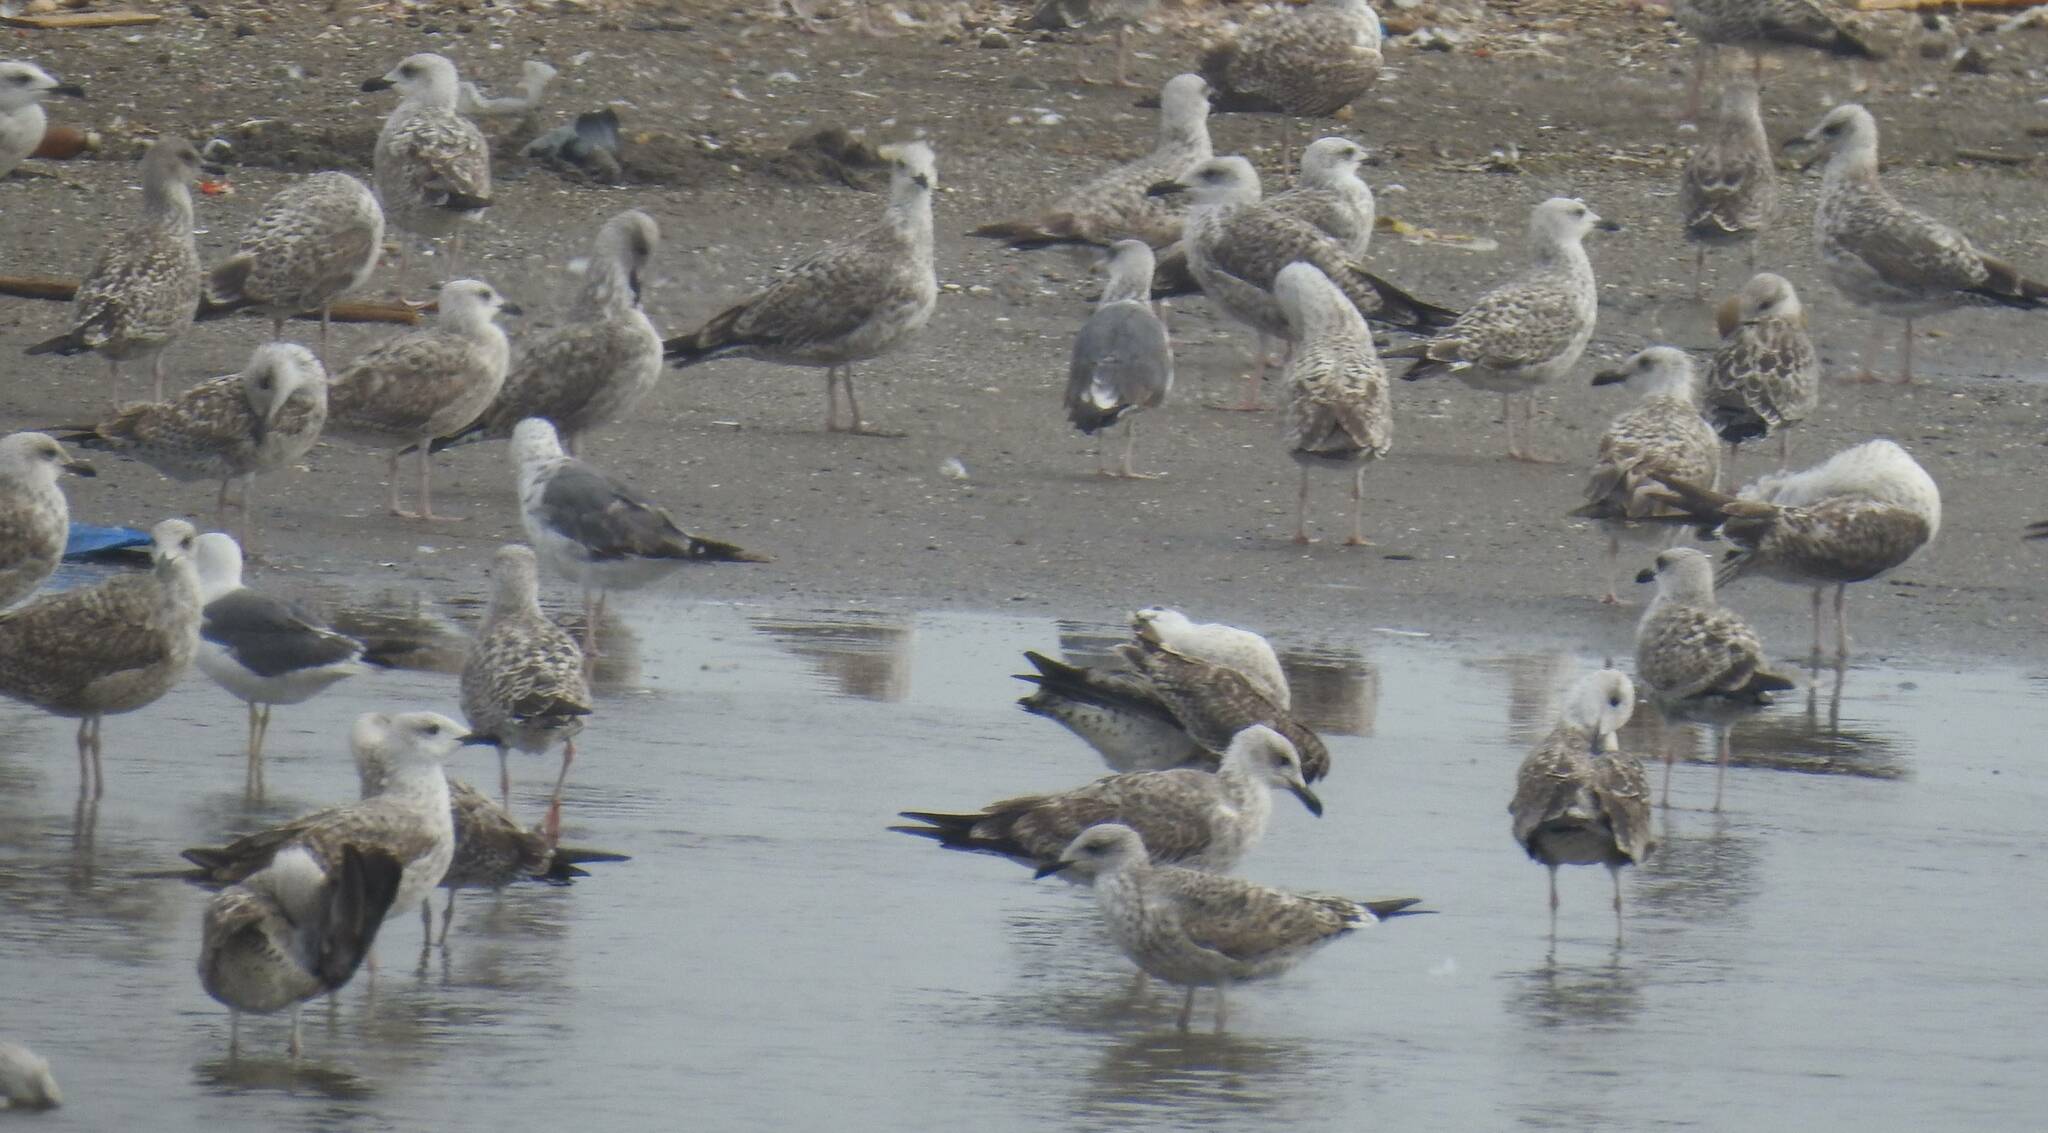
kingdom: Animalia
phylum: Chordata
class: Aves
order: Charadriiformes
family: Laridae
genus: Larus
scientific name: Larus michahellis
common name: Yellow-legged gull
